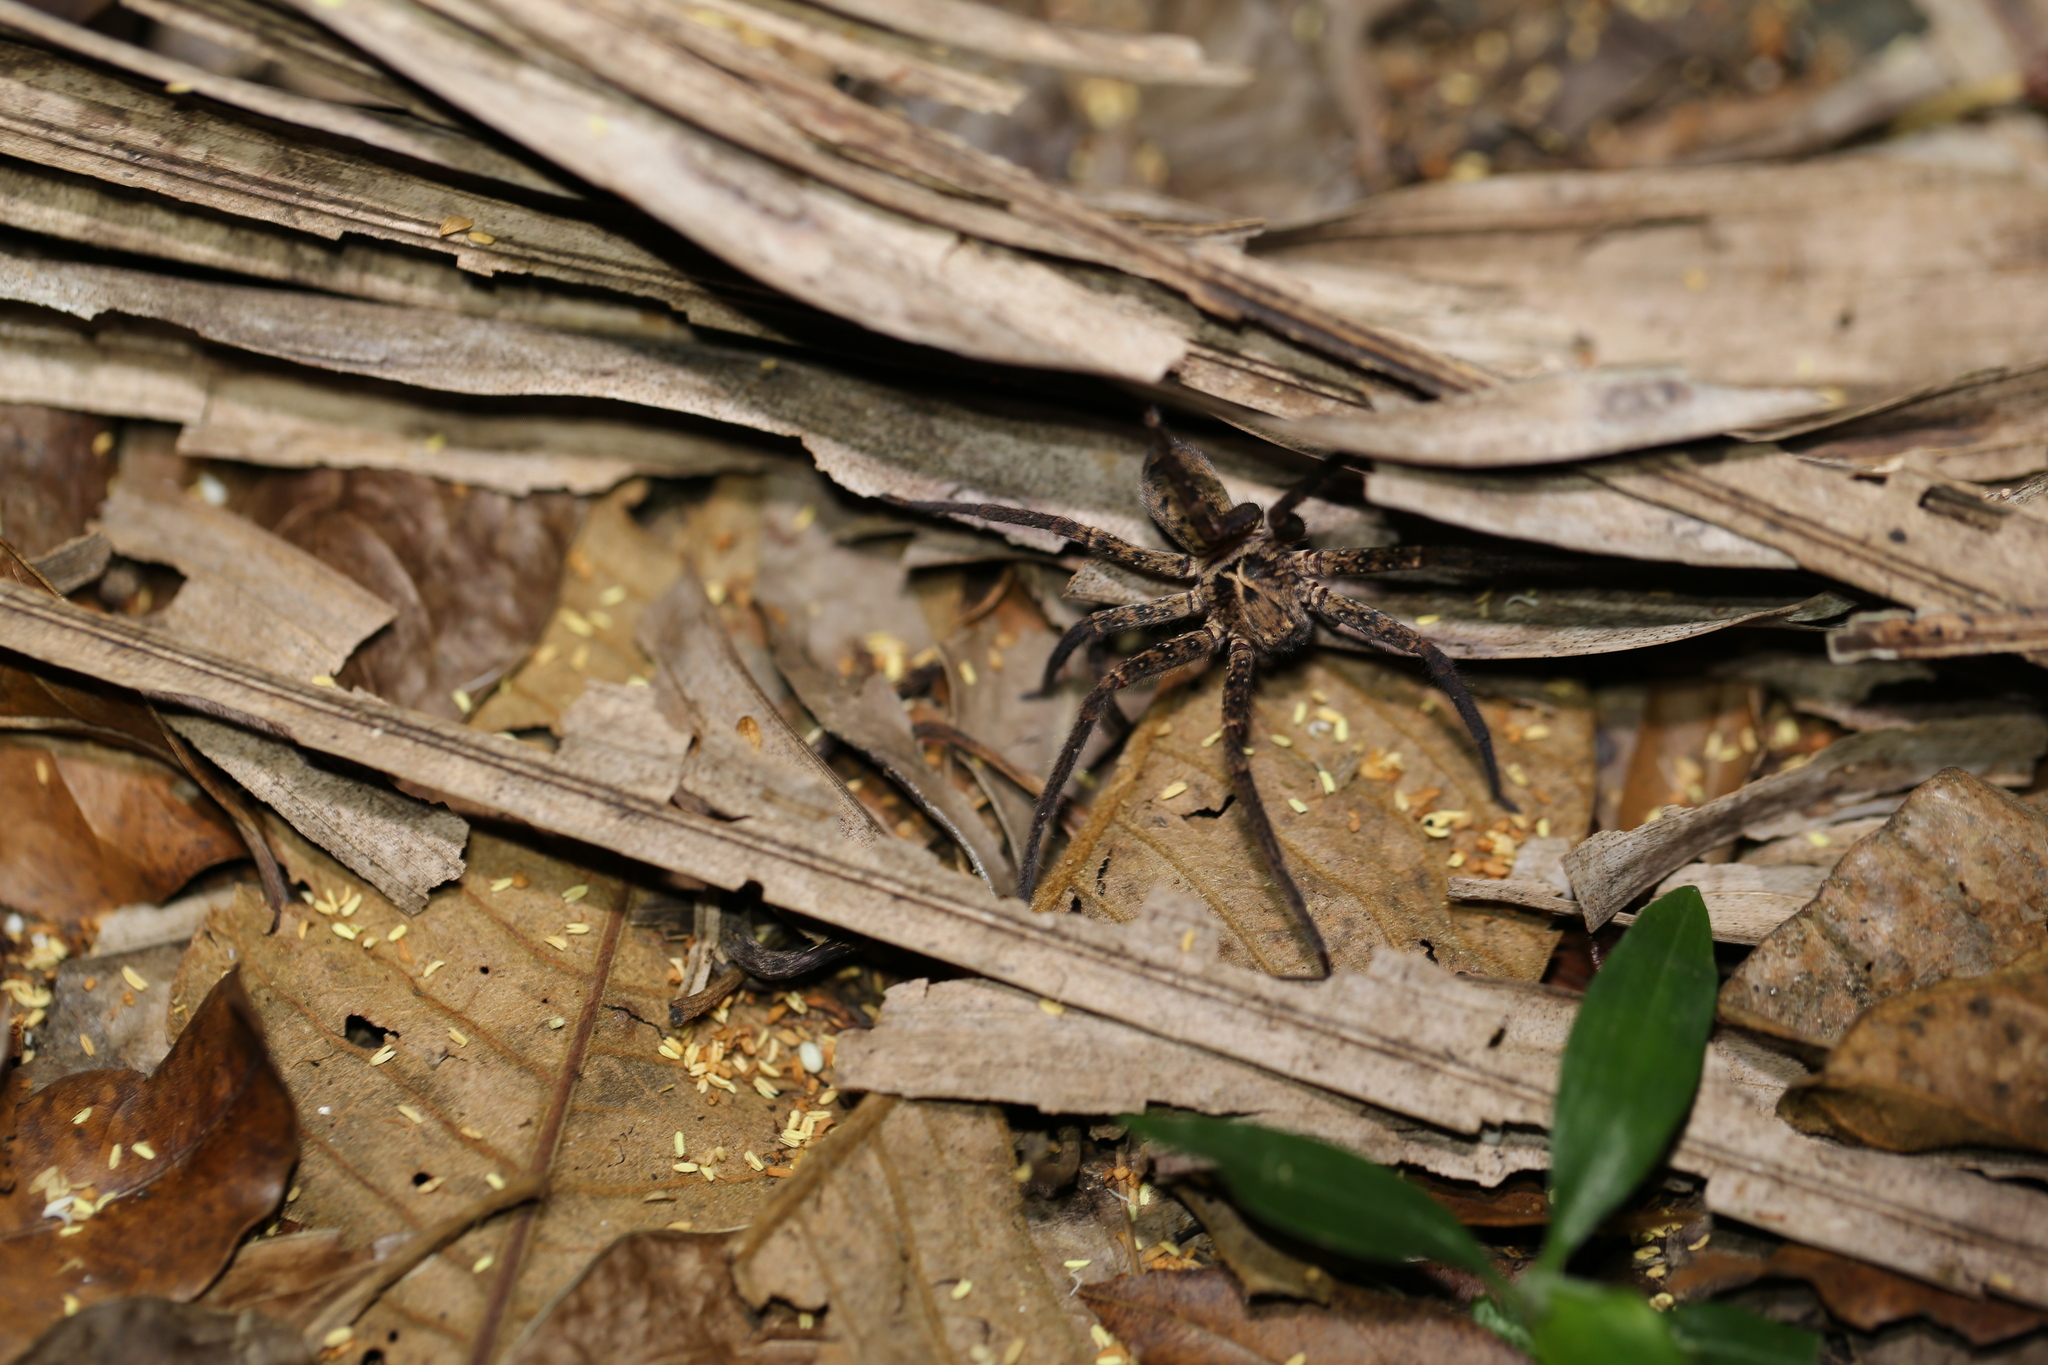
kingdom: Animalia
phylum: Arthropoda
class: Arachnida
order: Araneae
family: Sparassidae
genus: Heteropoda
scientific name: Heteropoda hillerae
